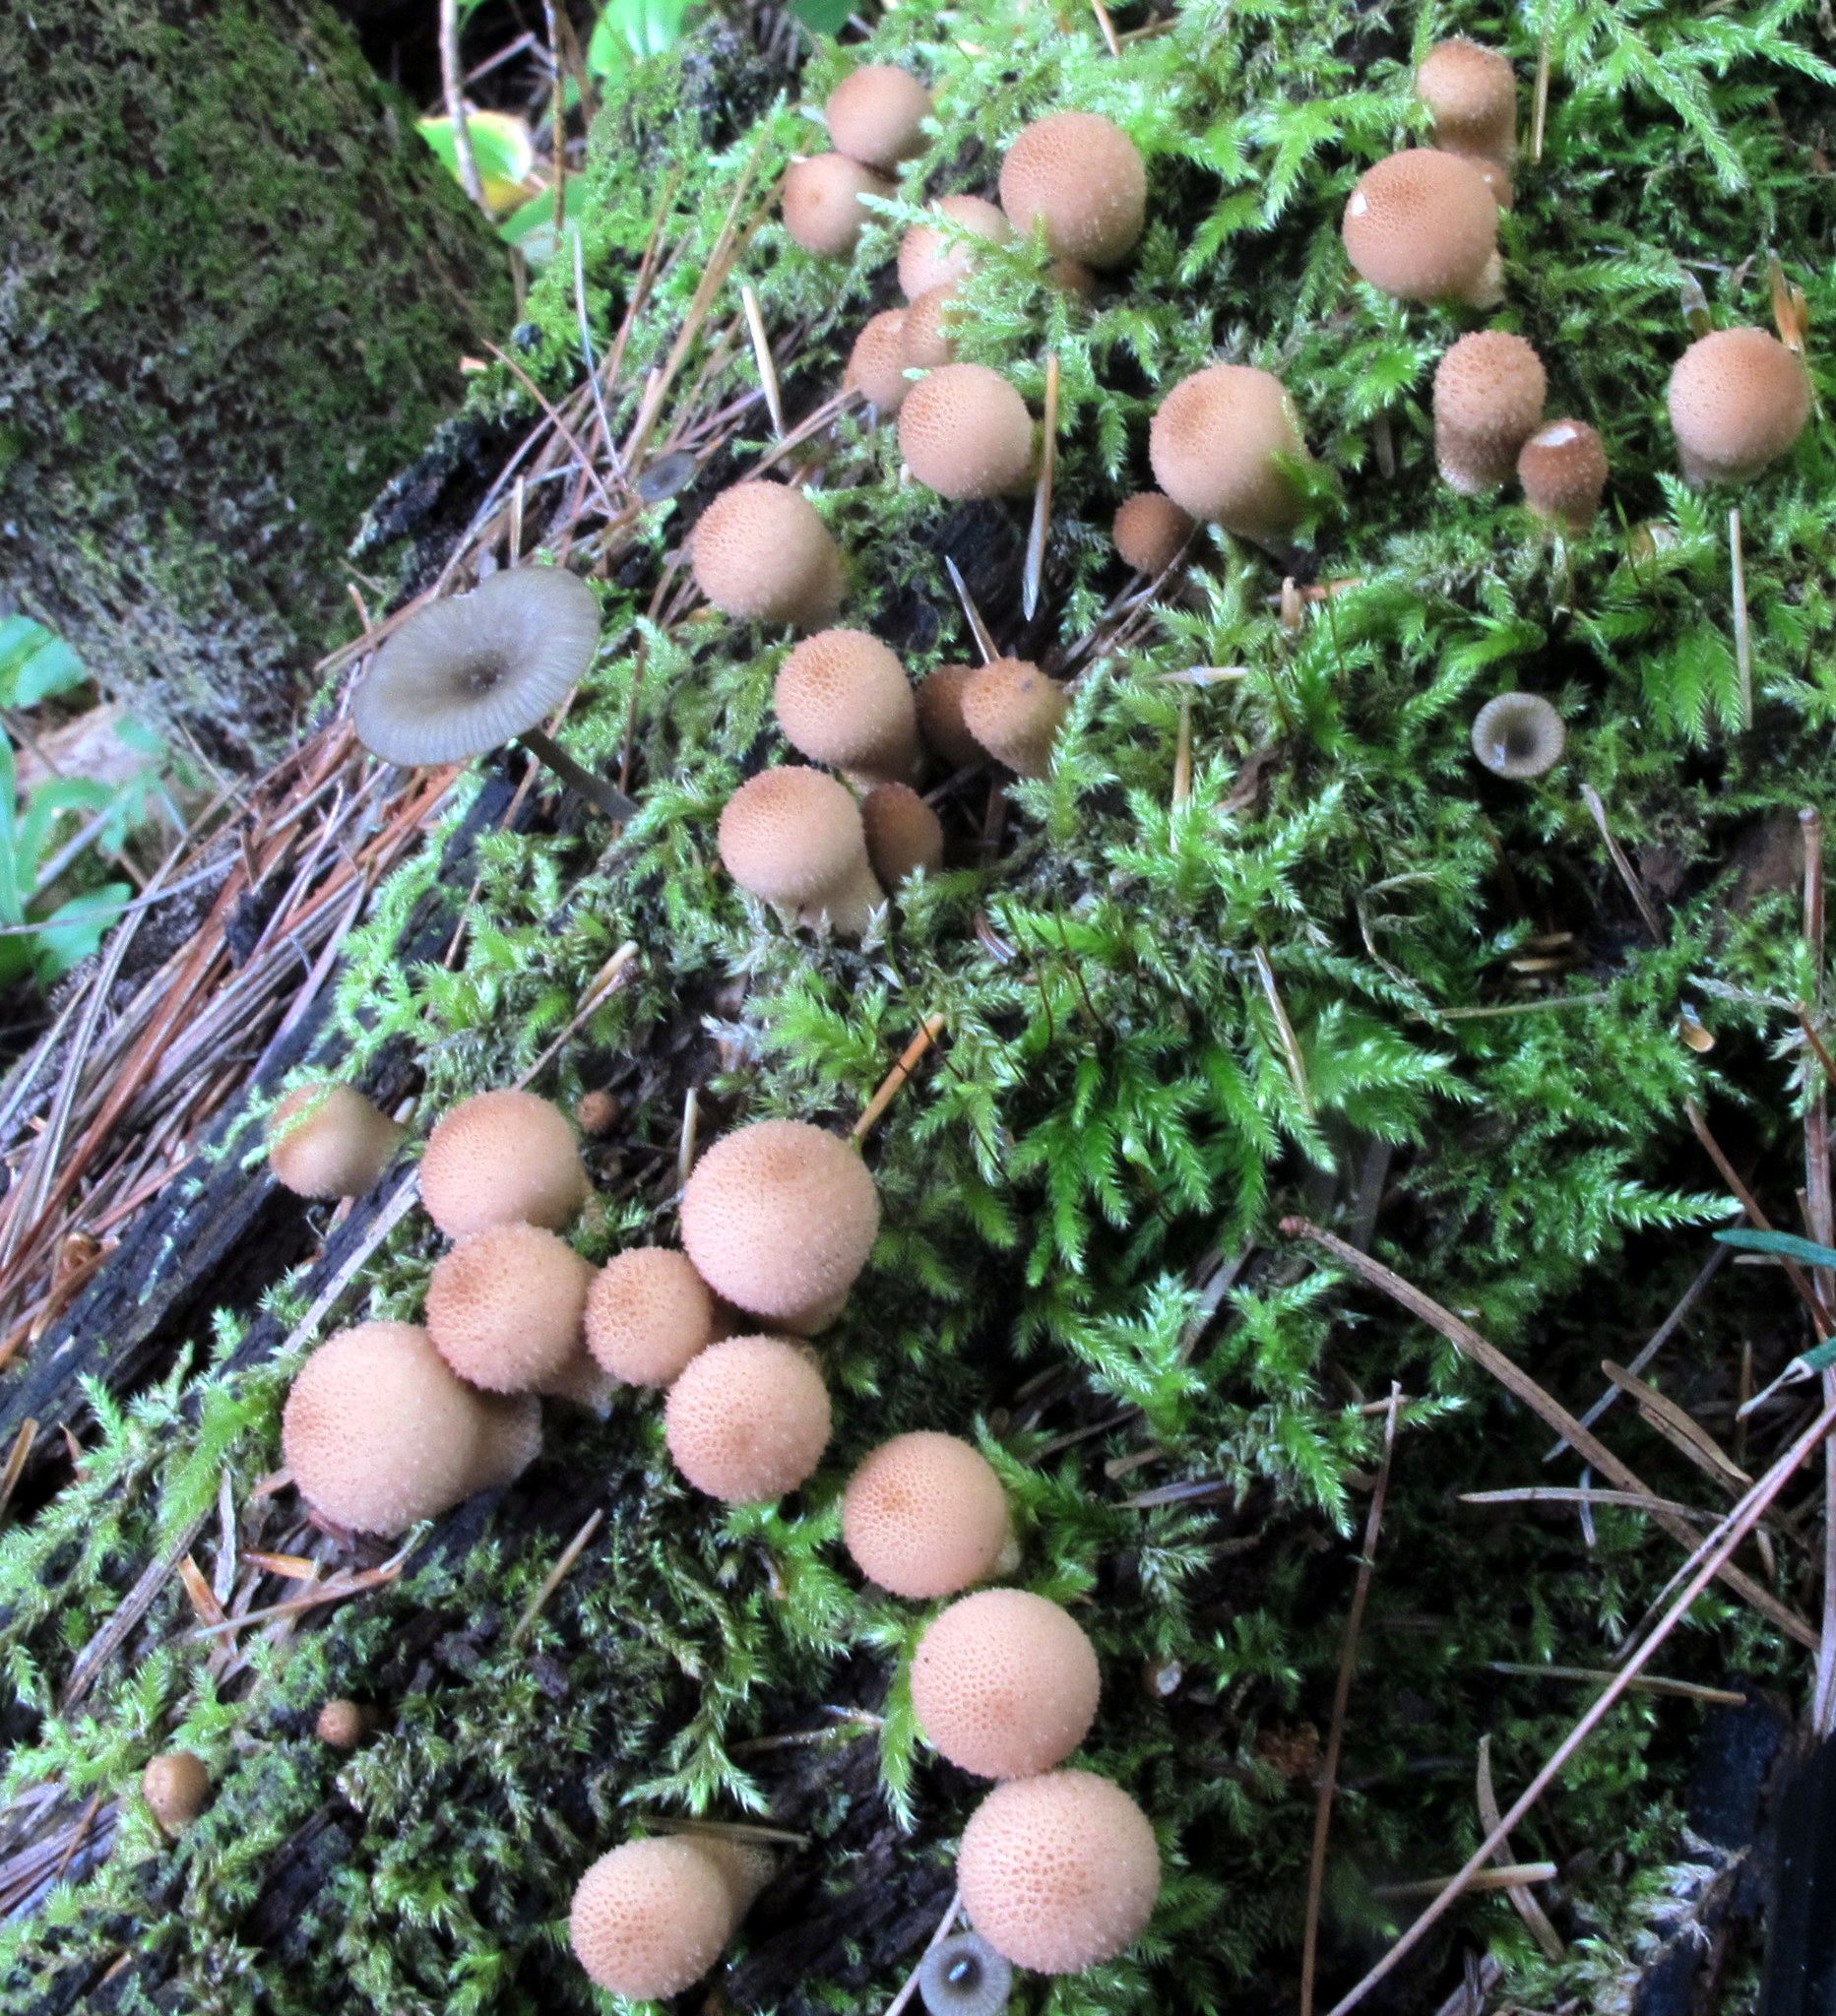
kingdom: Fungi
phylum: Basidiomycota
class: Agaricomycetes
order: Agaricales
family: Lycoperdaceae
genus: Apioperdon
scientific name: Apioperdon pyriforme
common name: Pear-shaped puffball
